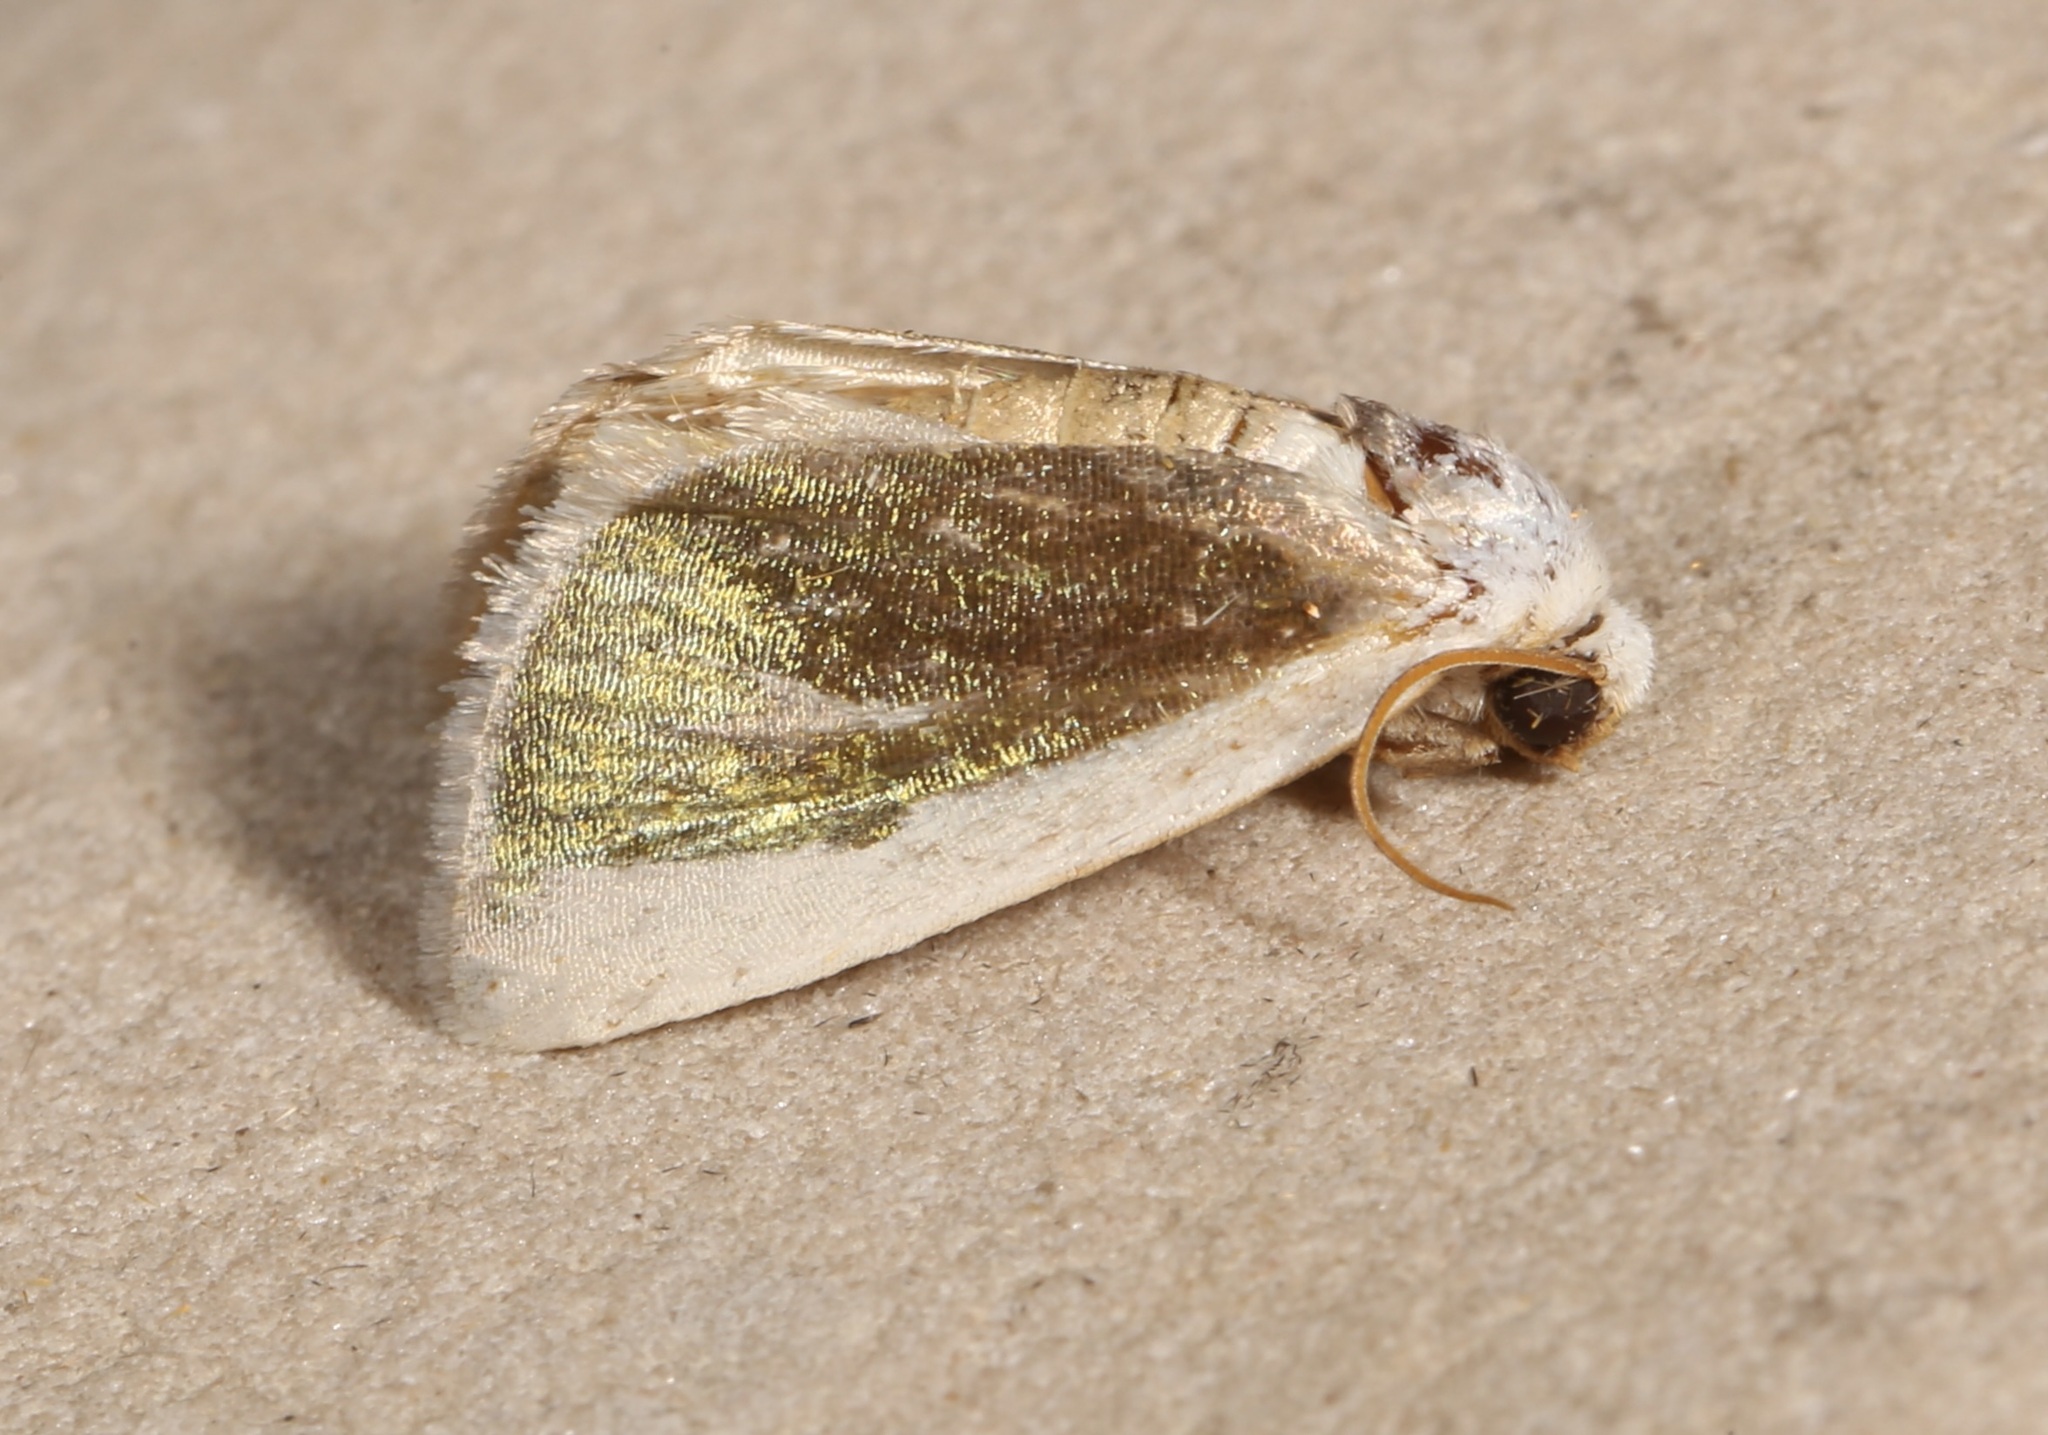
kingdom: Animalia
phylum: Arthropoda
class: Insecta
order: Lepidoptera
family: Noctuidae
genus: Neumoegenia
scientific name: Neumoegenia poetica
